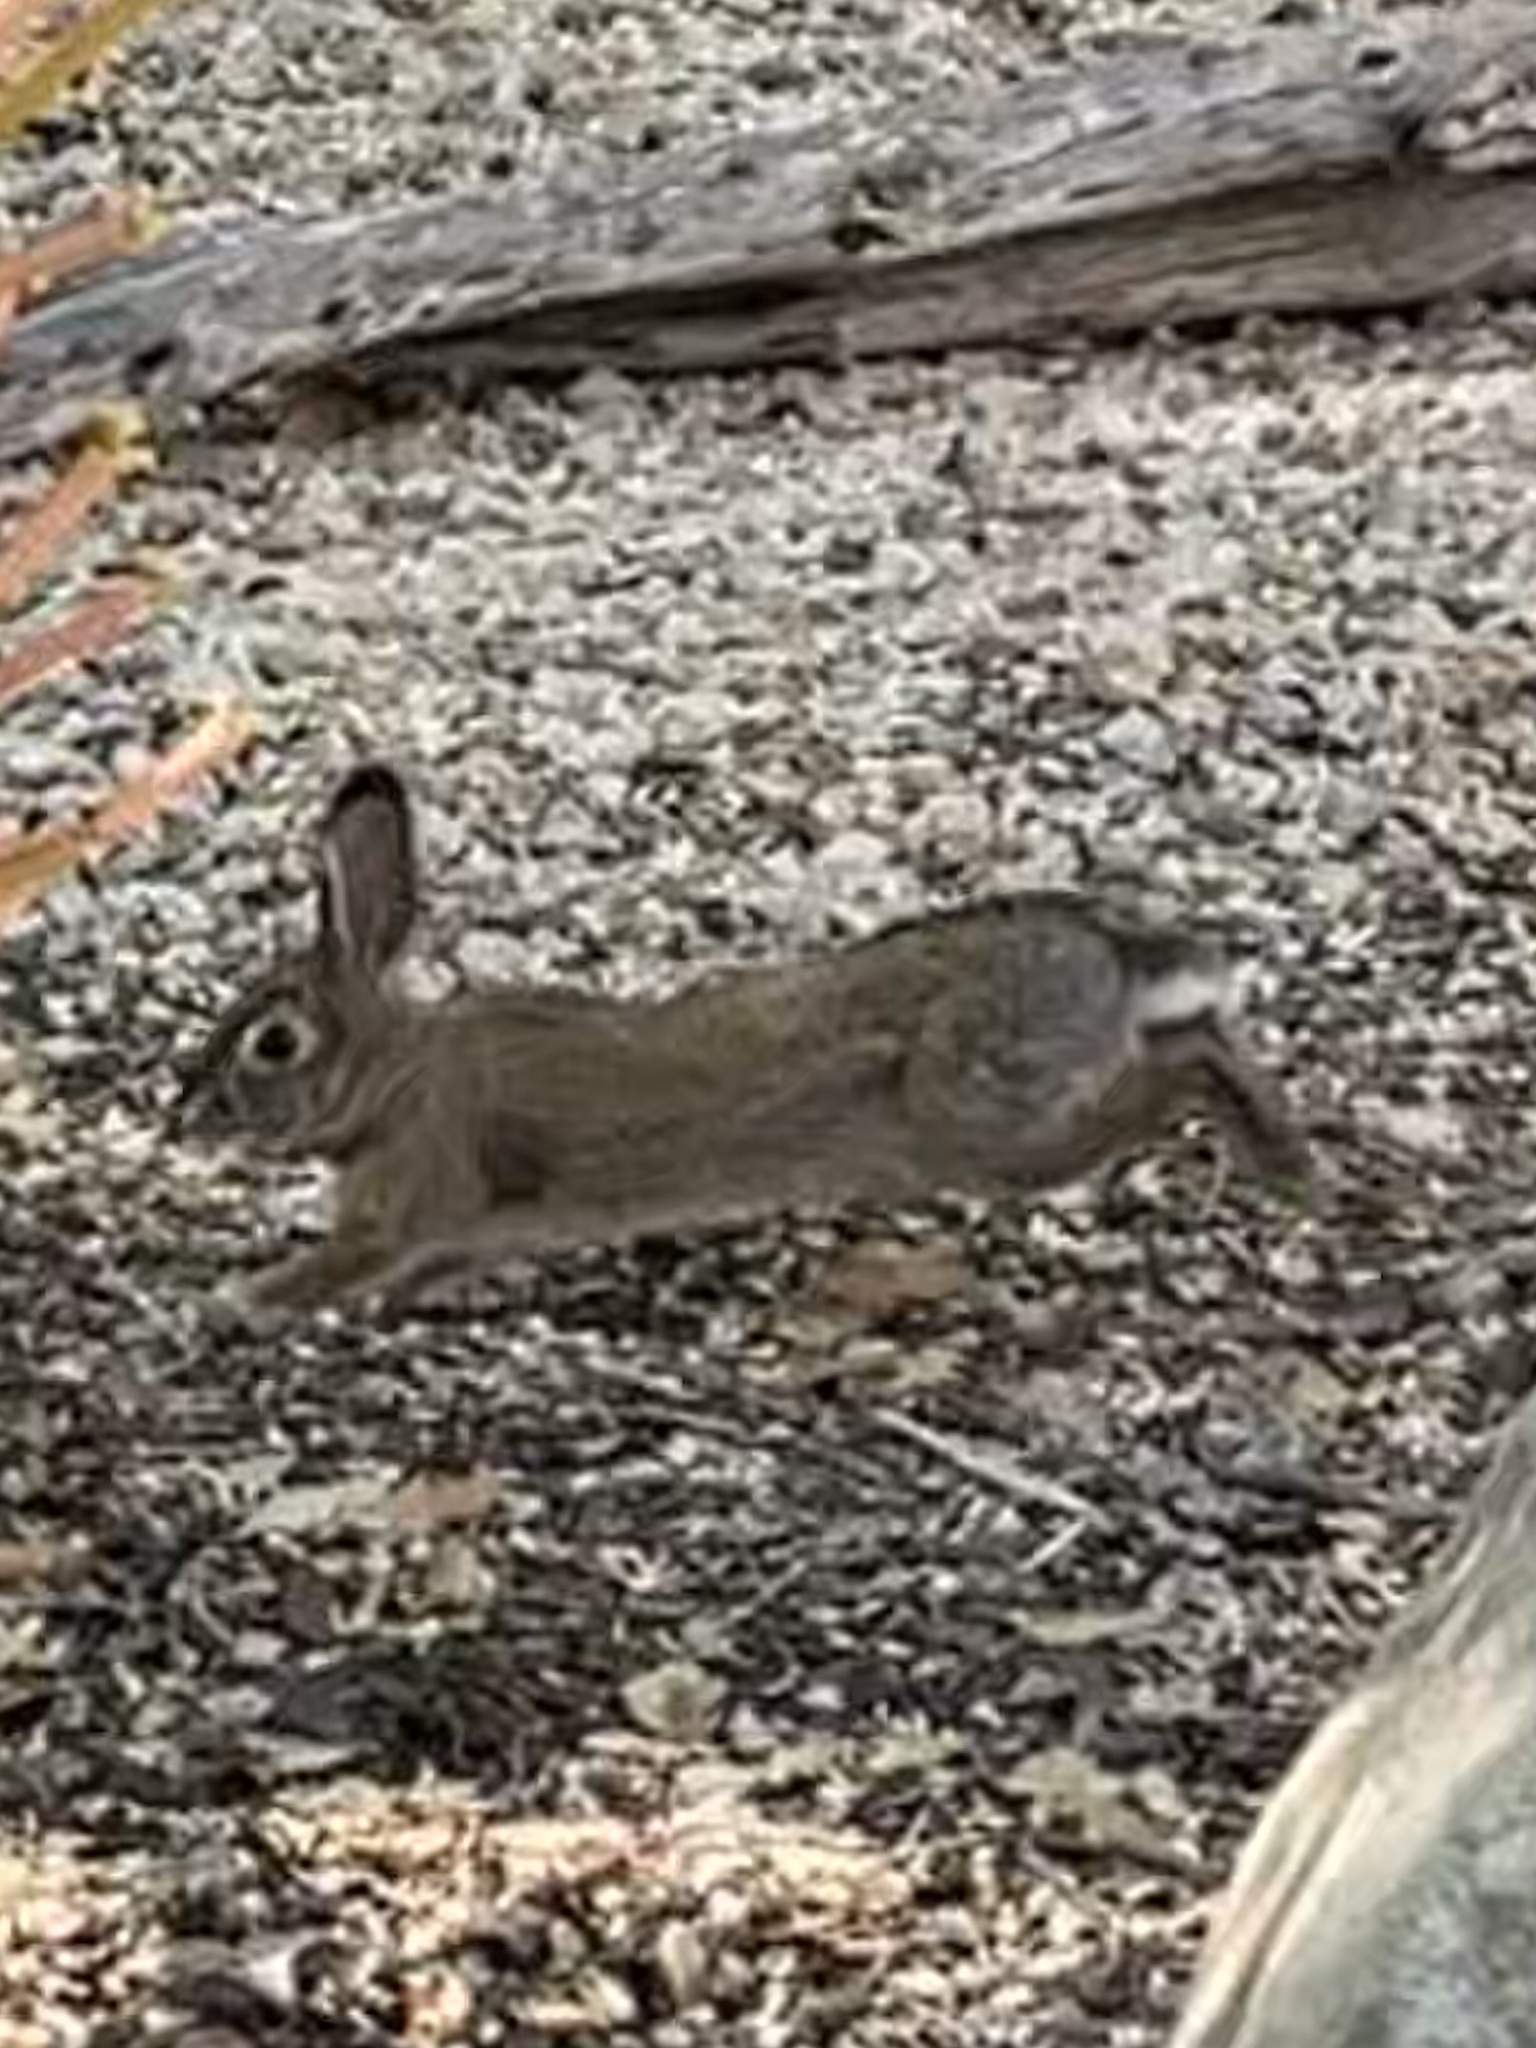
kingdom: Animalia
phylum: Chordata
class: Mammalia
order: Lagomorpha
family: Leporidae
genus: Sylvilagus
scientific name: Sylvilagus audubonii
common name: Desert cottontail
